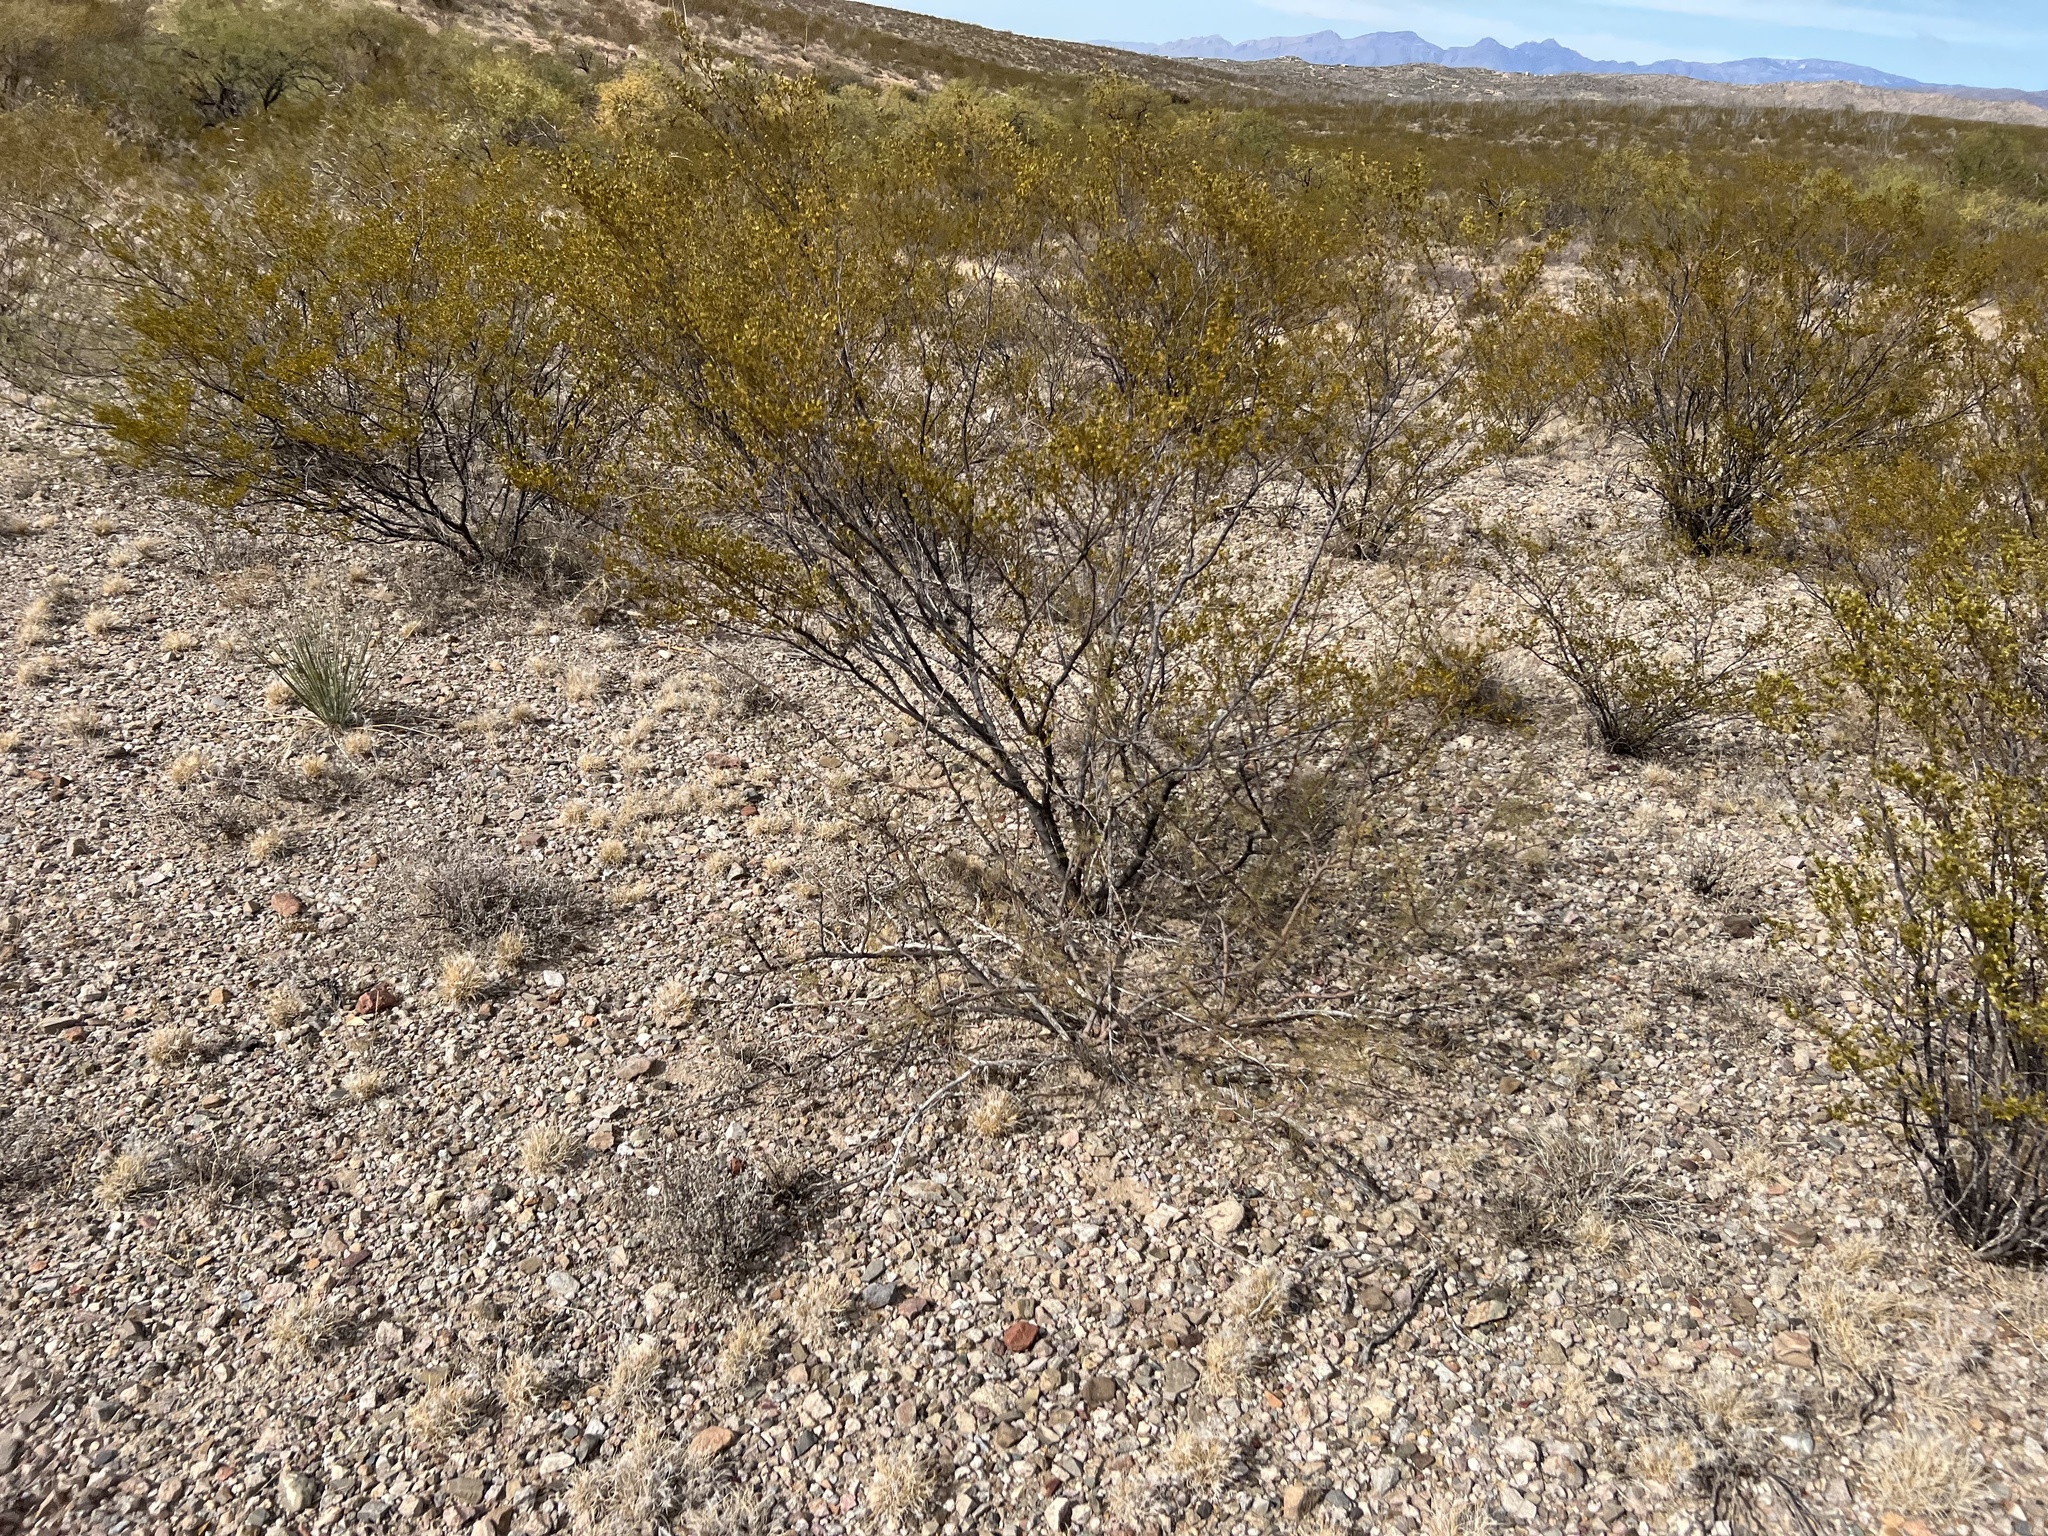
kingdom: Plantae
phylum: Tracheophyta
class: Magnoliopsida
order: Zygophyllales
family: Zygophyllaceae
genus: Larrea
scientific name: Larrea tridentata
